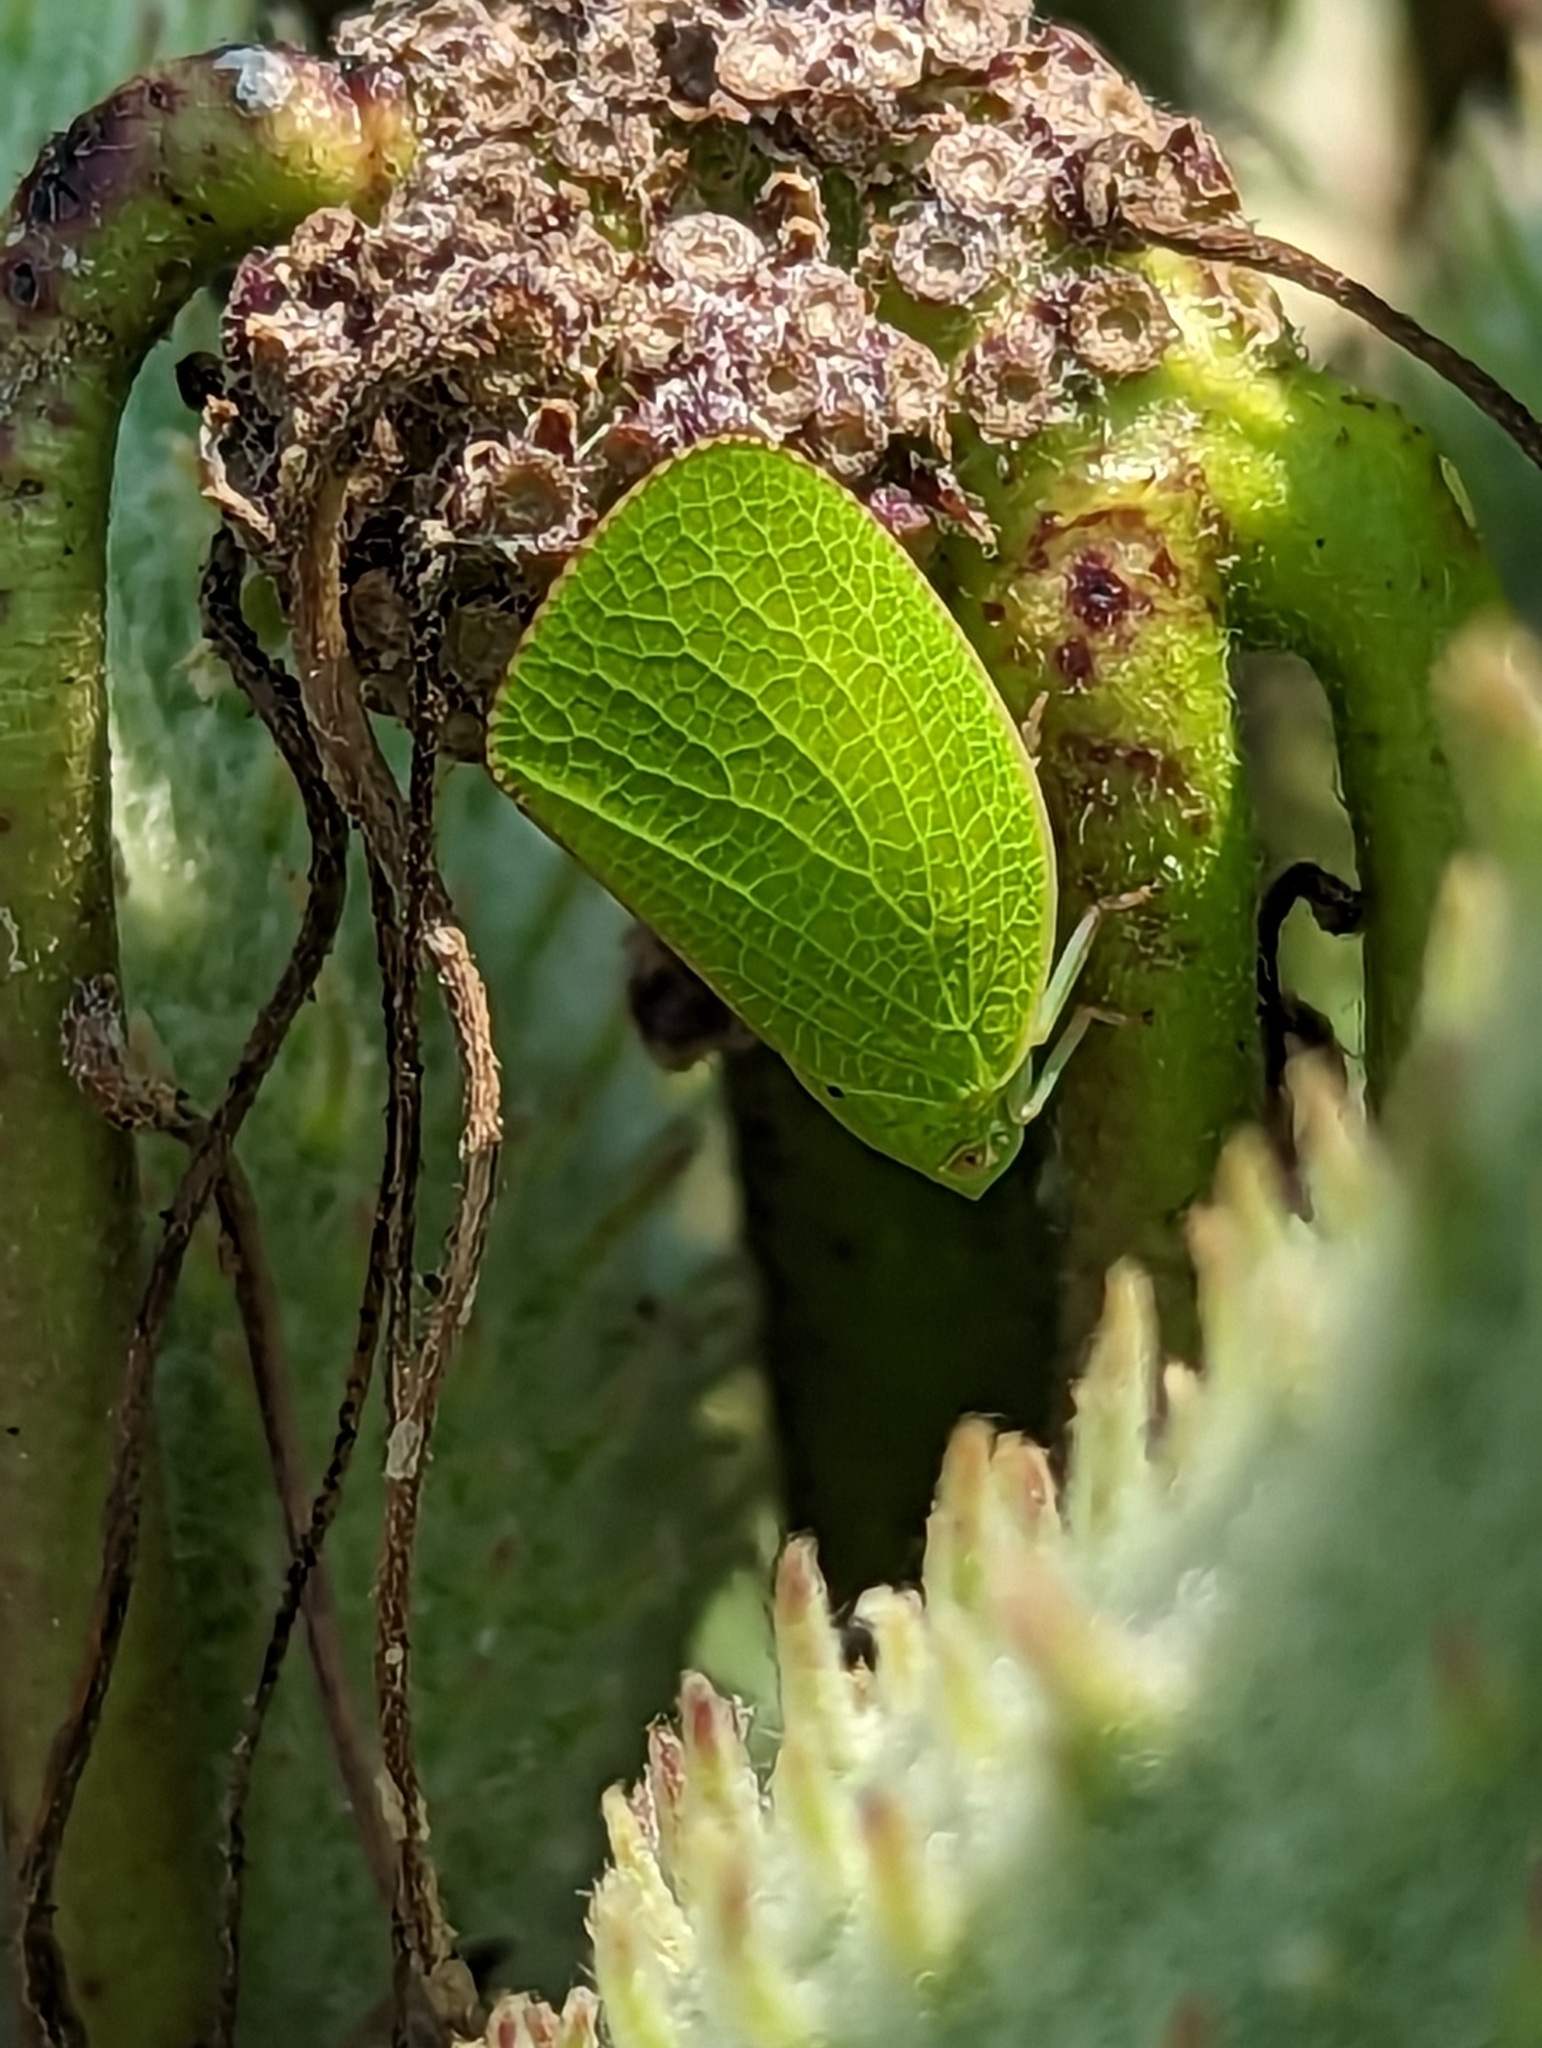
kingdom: Animalia
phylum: Arthropoda
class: Insecta
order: Hemiptera
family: Acanaloniidae
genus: Acanalonia
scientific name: Acanalonia conica
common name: Green cone-headed planthopper
